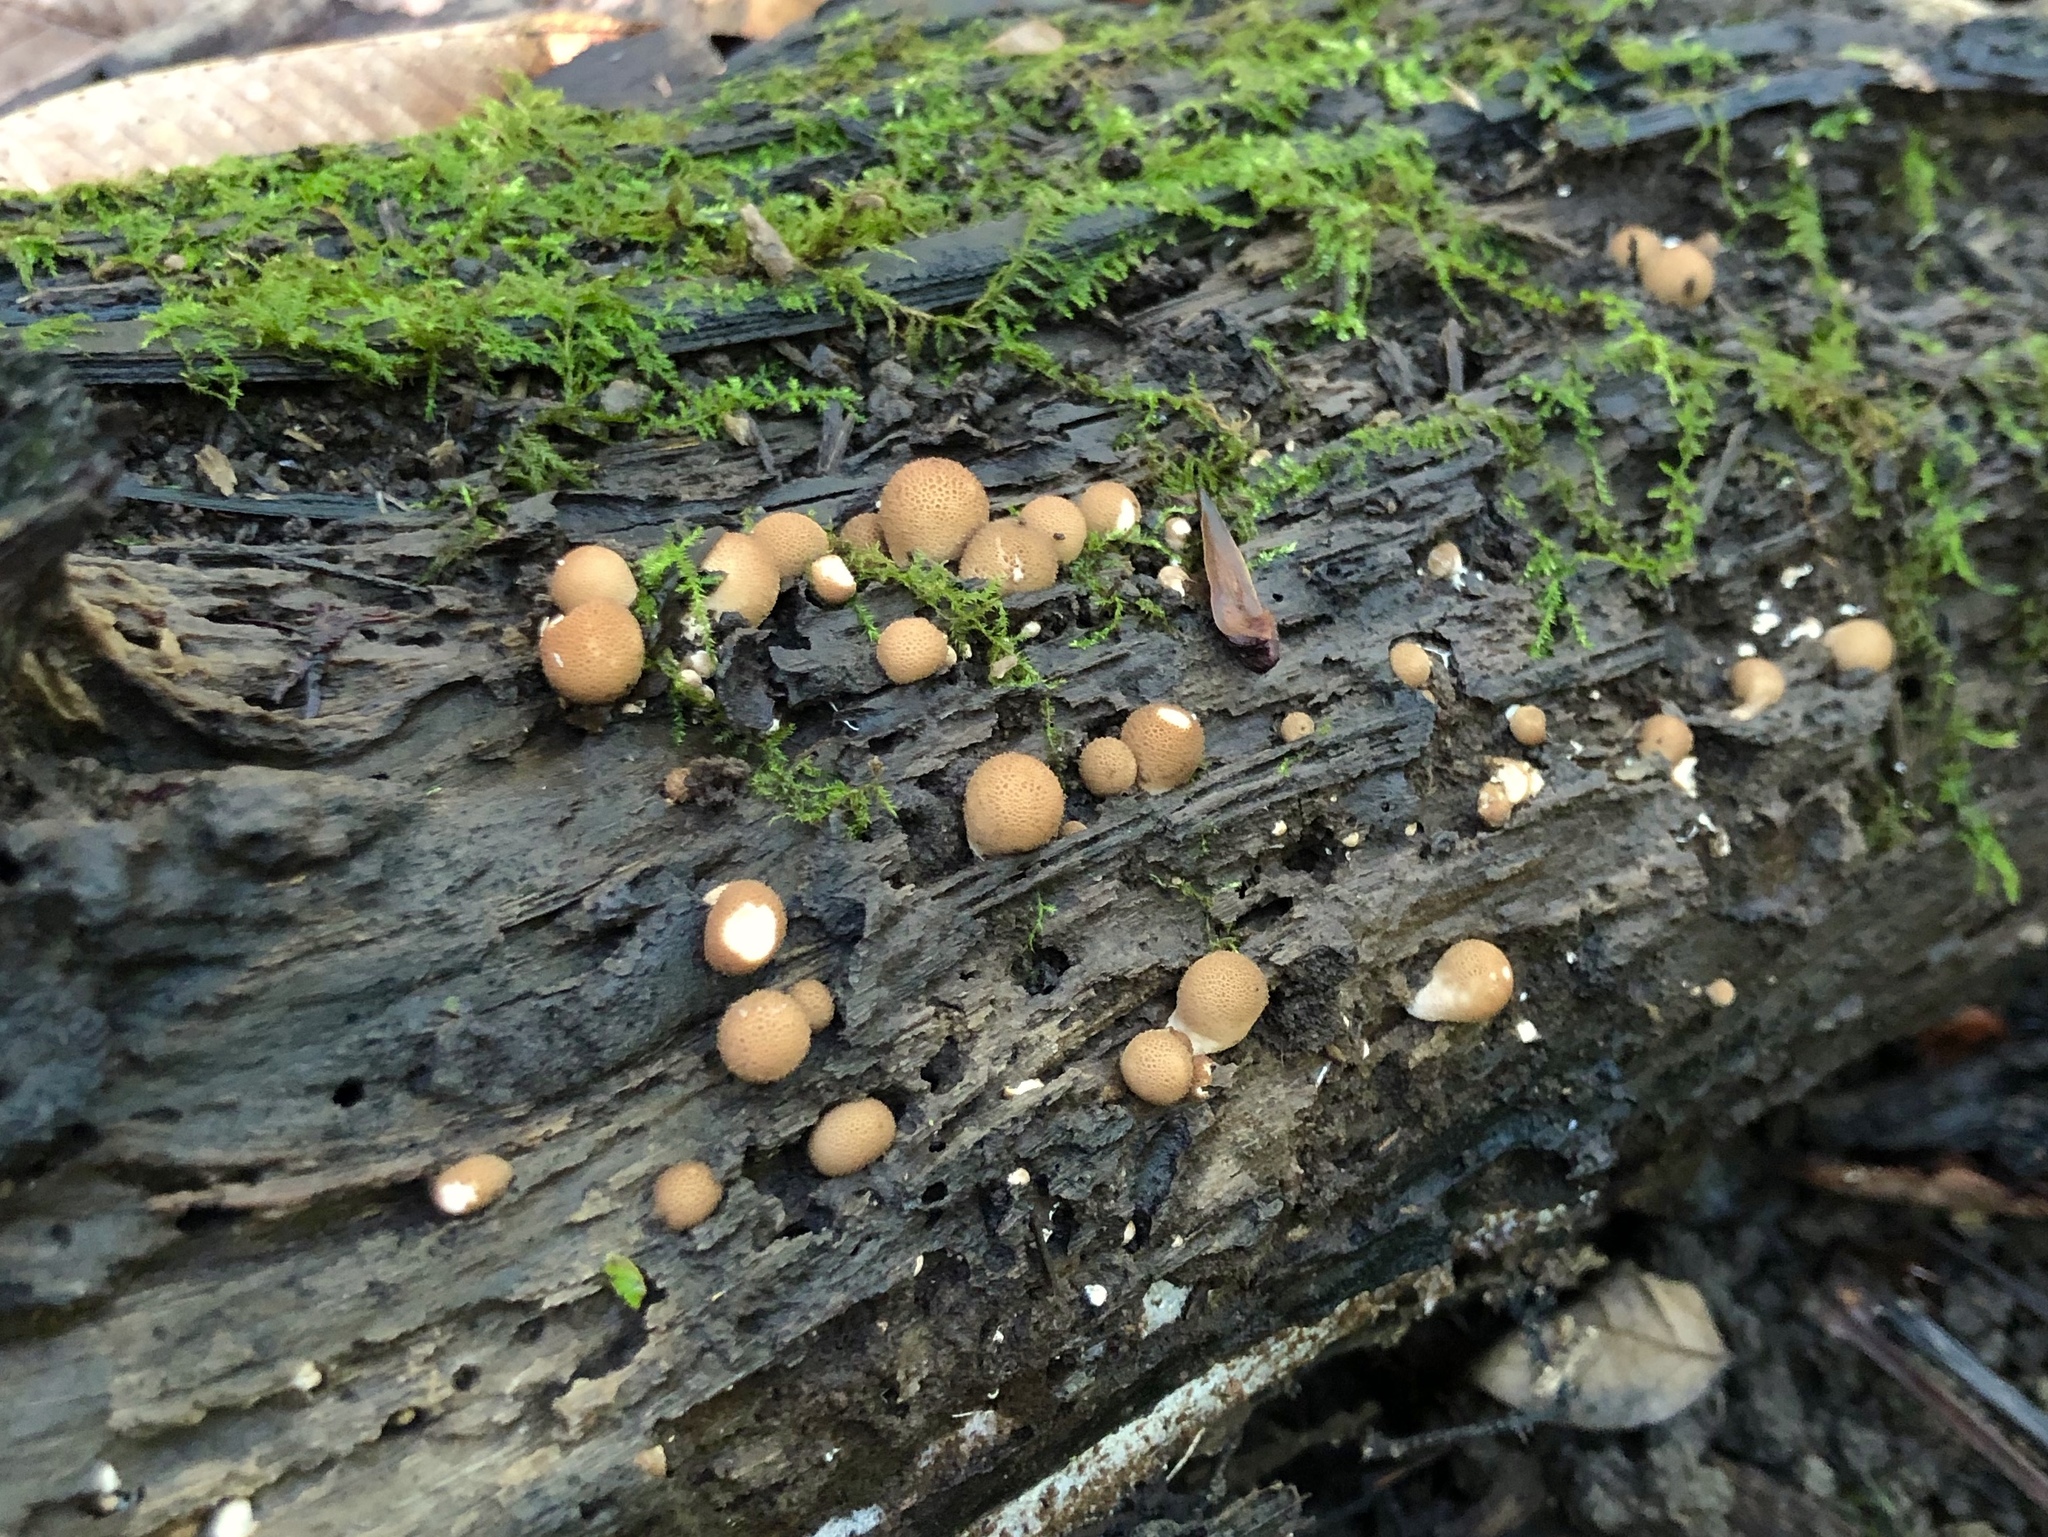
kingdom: Fungi
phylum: Basidiomycota
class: Agaricomycetes
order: Agaricales
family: Lycoperdaceae
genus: Apioperdon
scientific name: Apioperdon pyriforme
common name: Pear-shaped puffball
